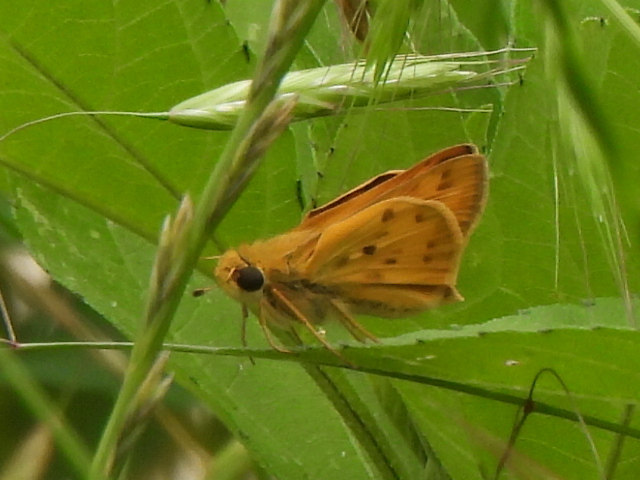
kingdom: Animalia
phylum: Arthropoda
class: Insecta
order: Lepidoptera
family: Hesperiidae
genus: Hylephila
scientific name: Hylephila phyleus
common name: Fiery skipper
